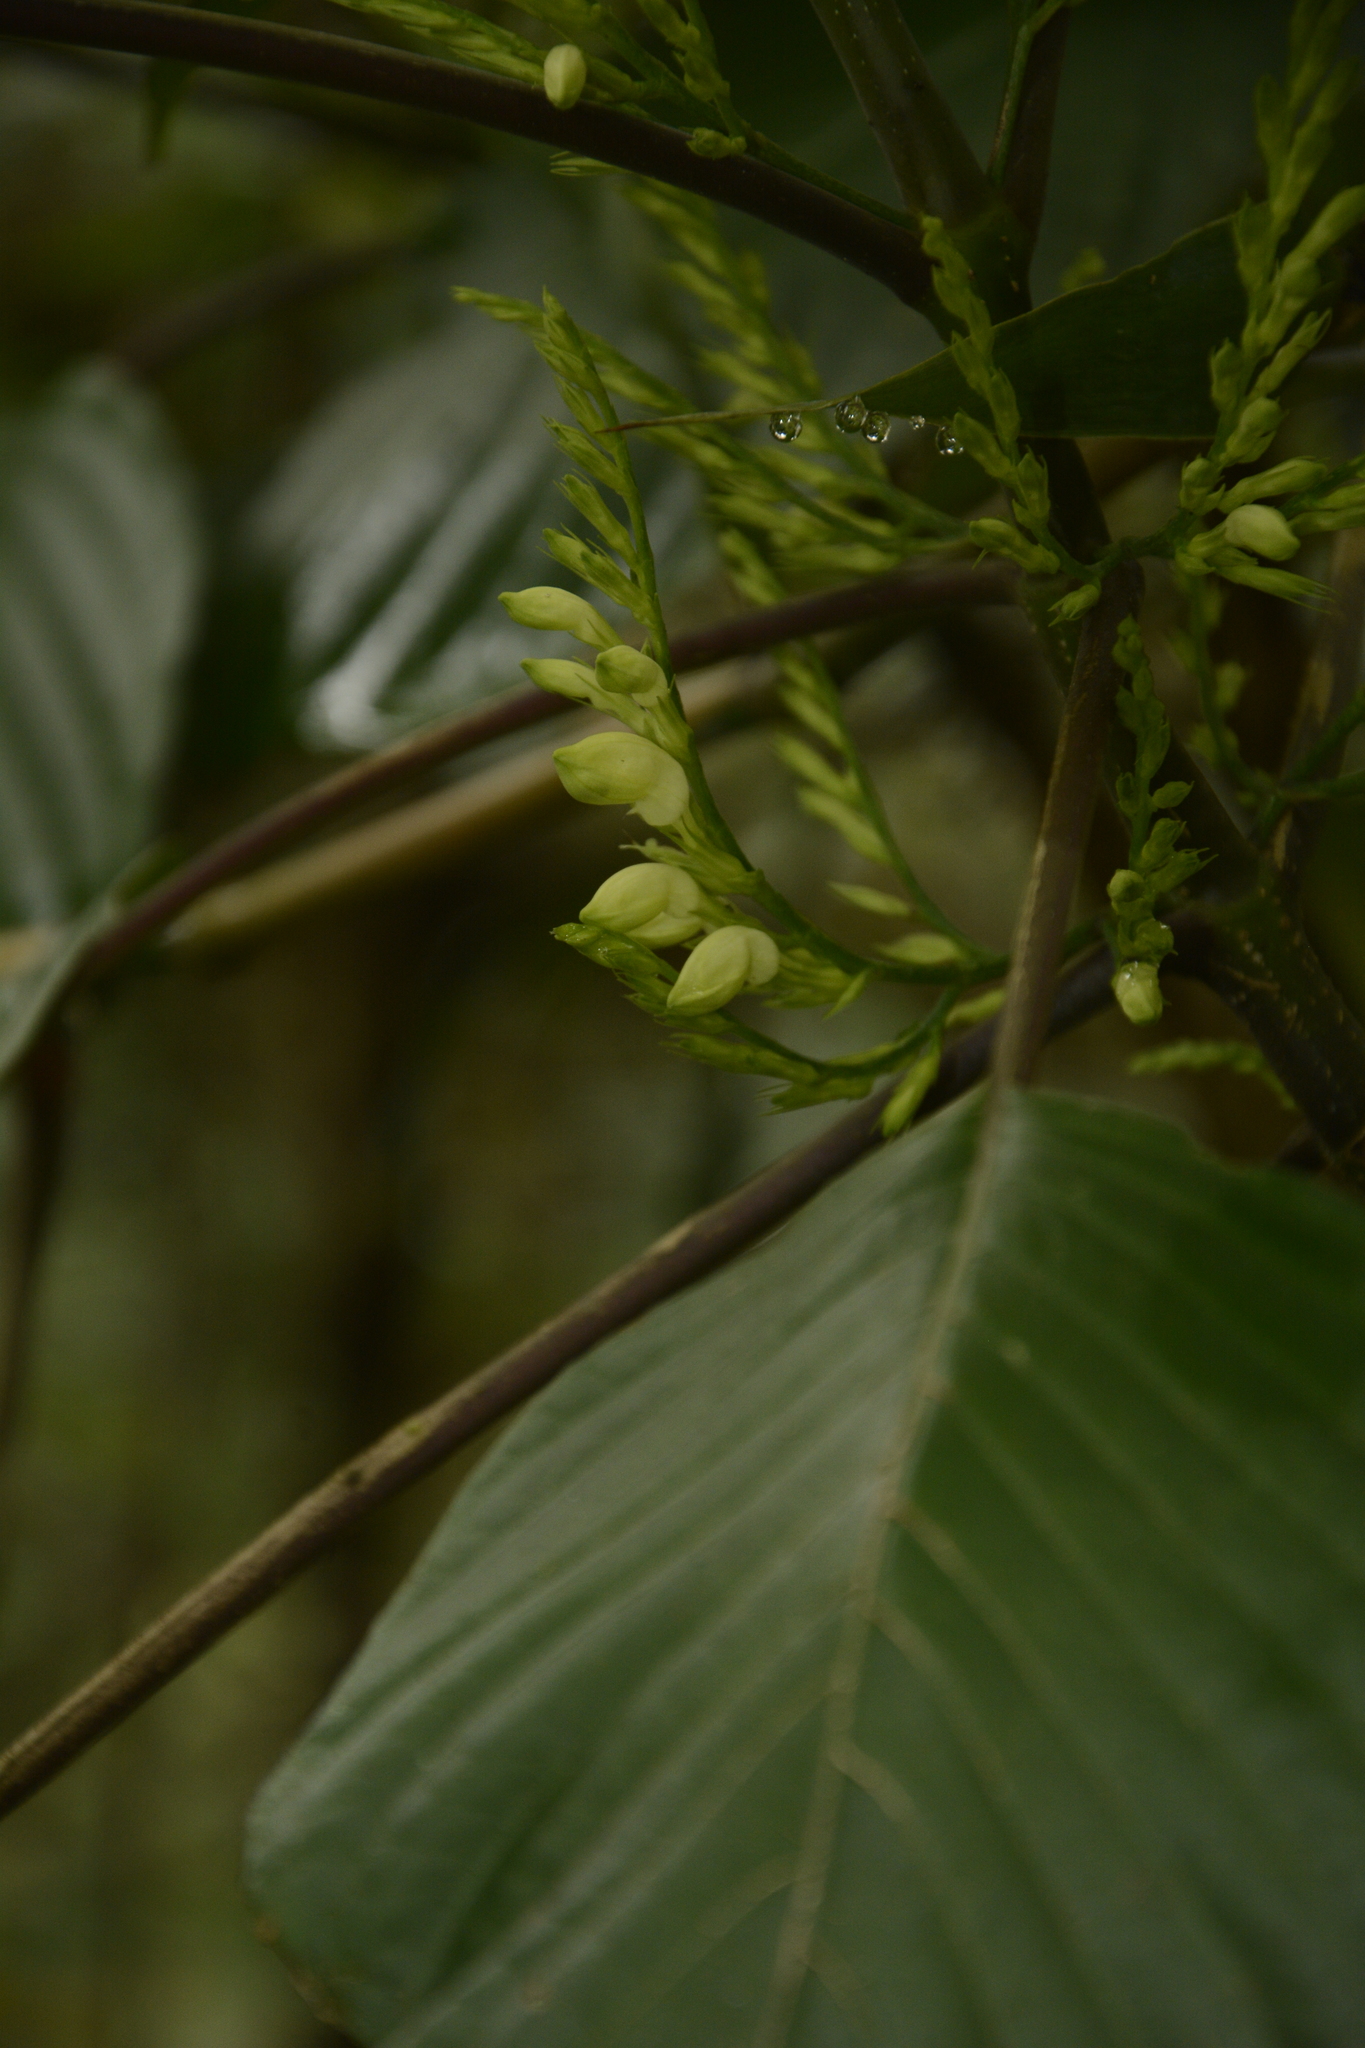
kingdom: Plantae
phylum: Tracheophyta
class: Magnoliopsida
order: Lamiales
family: Acanthaceae
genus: Gymnostachyum
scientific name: Gymnostachyum latifolium
